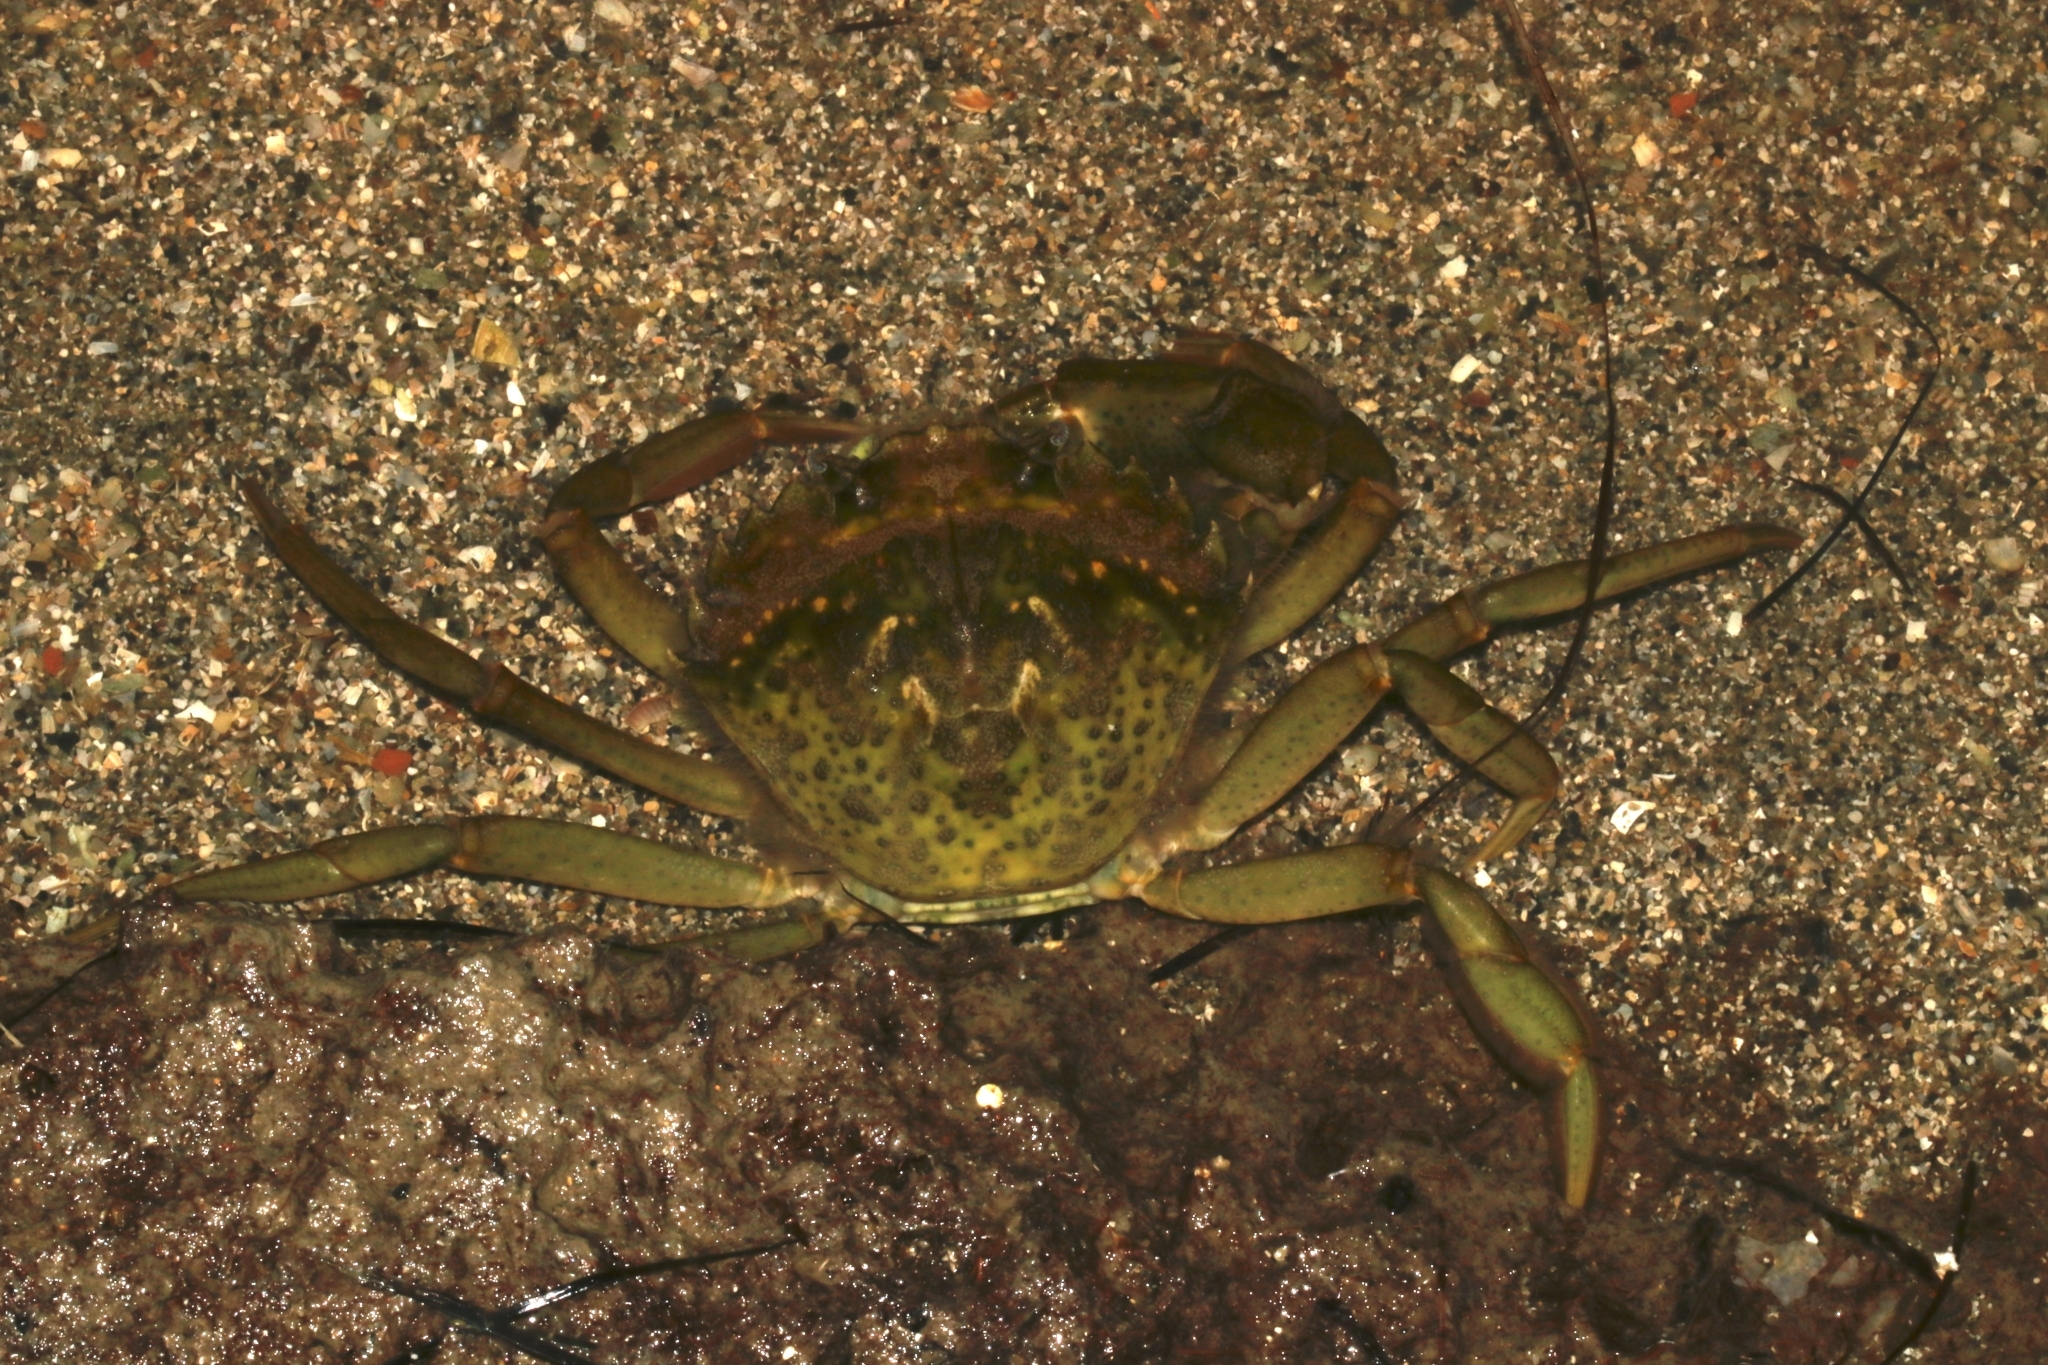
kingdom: Animalia
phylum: Arthropoda
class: Malacostraca
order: Decapoda
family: Carcinidae
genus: Carcinus
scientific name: Carcinus aestuarii
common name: Mediterranean green crab
